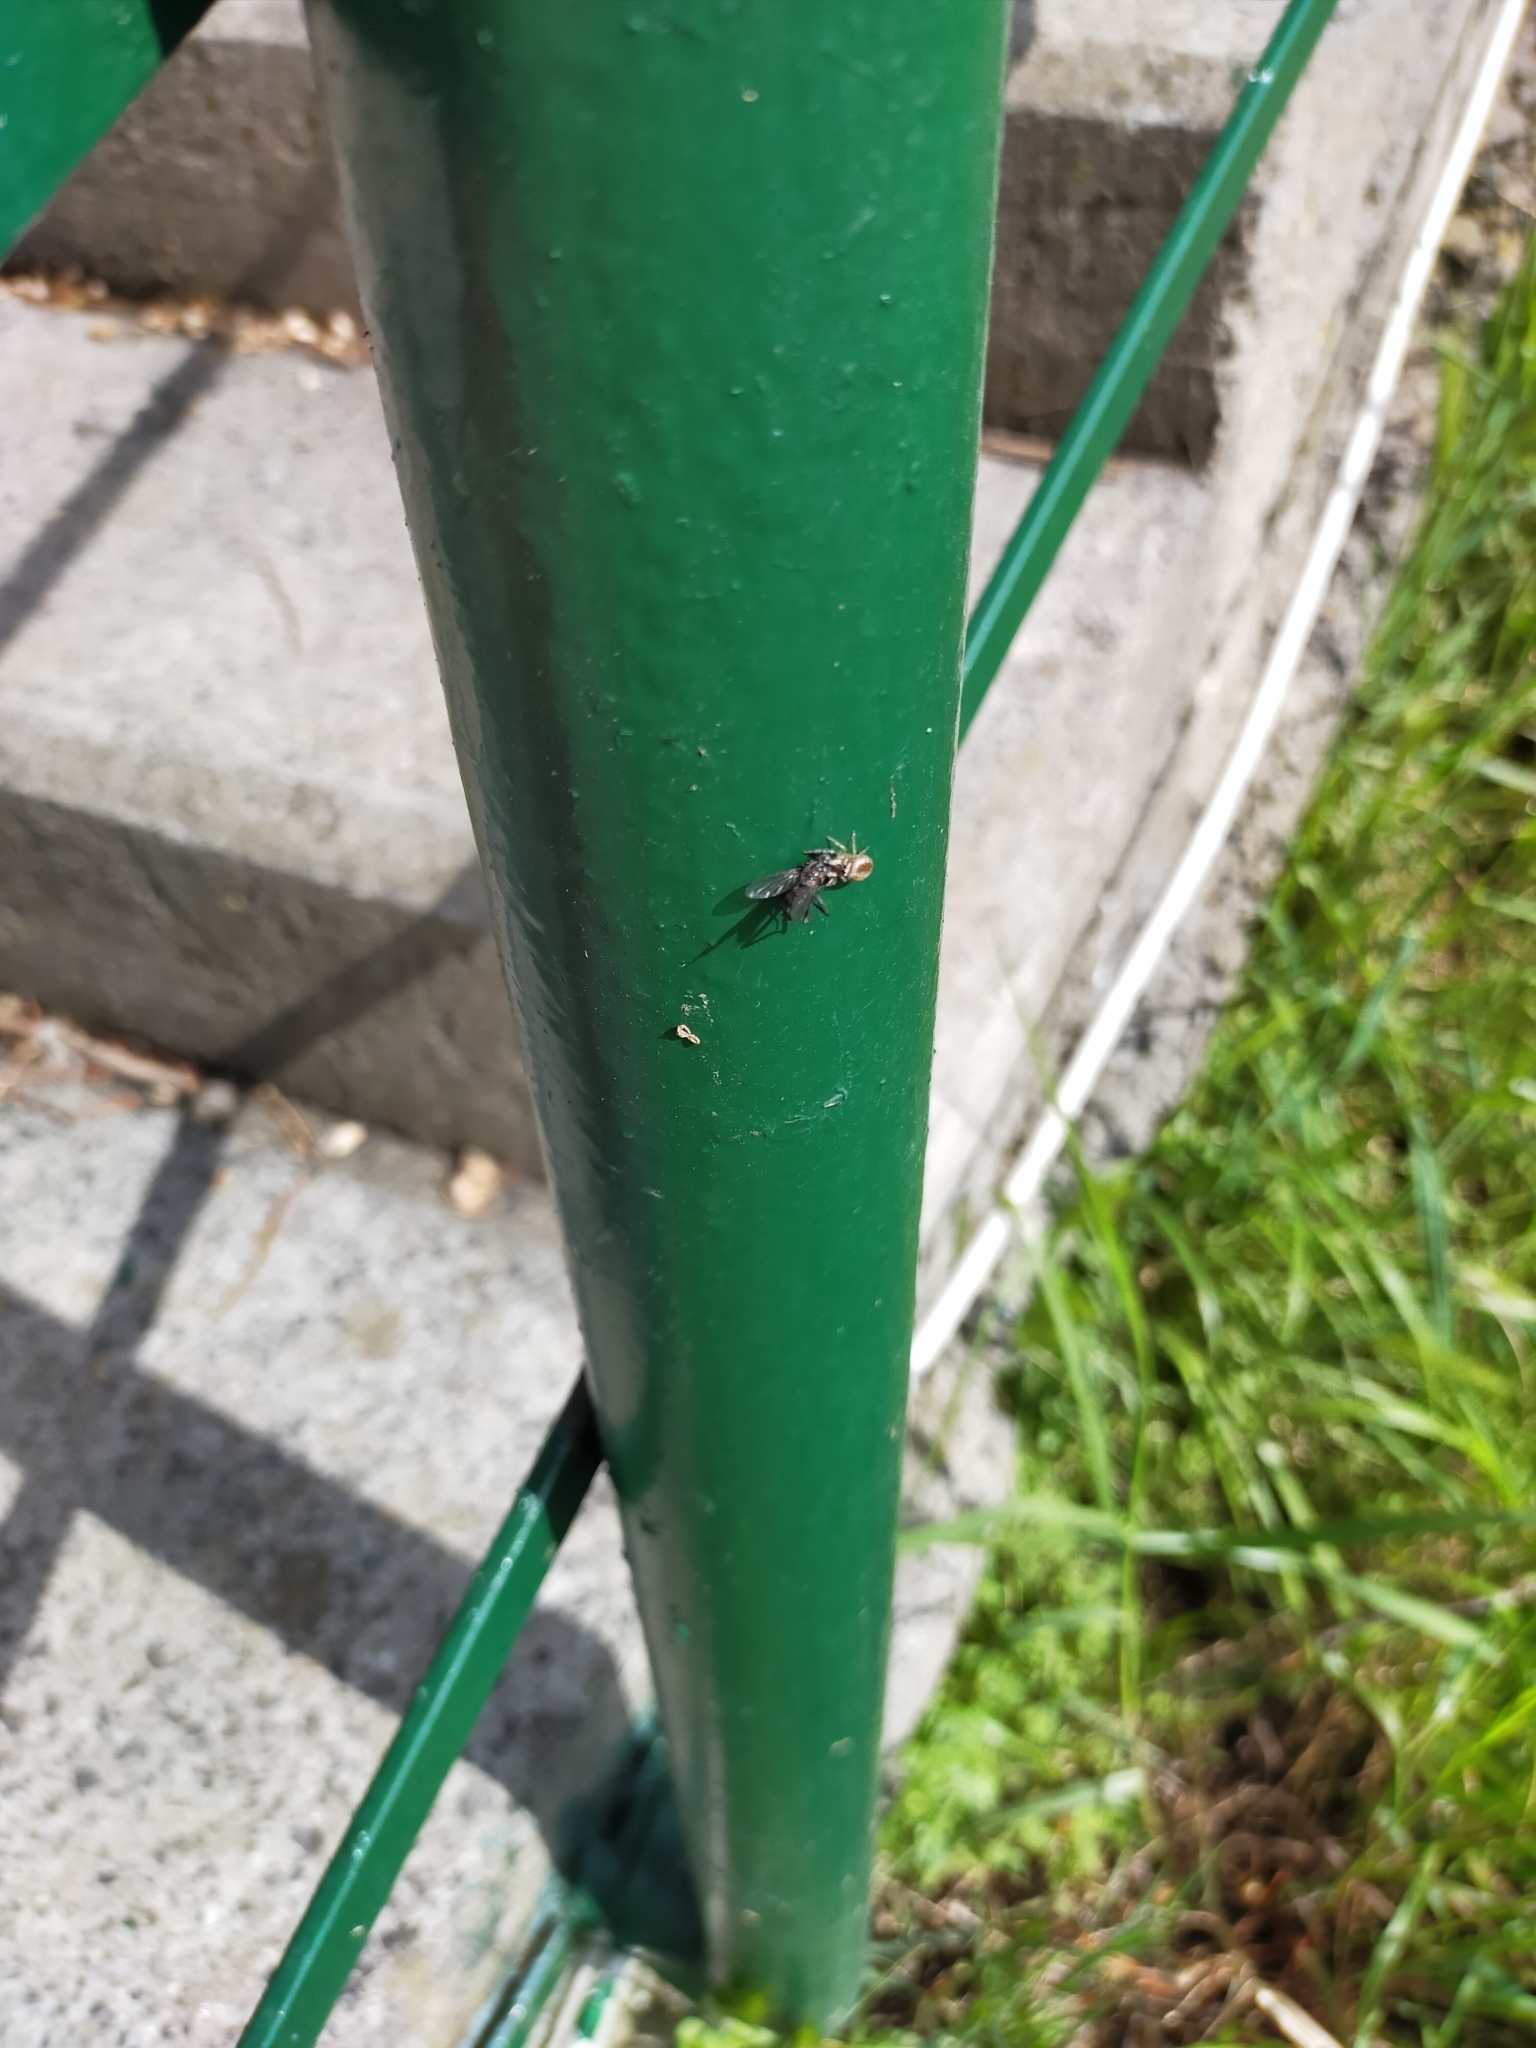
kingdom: Animalia
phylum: Arthropoda
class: Arachnida
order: Araneae
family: Salticidae
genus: Icius
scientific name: Icius
